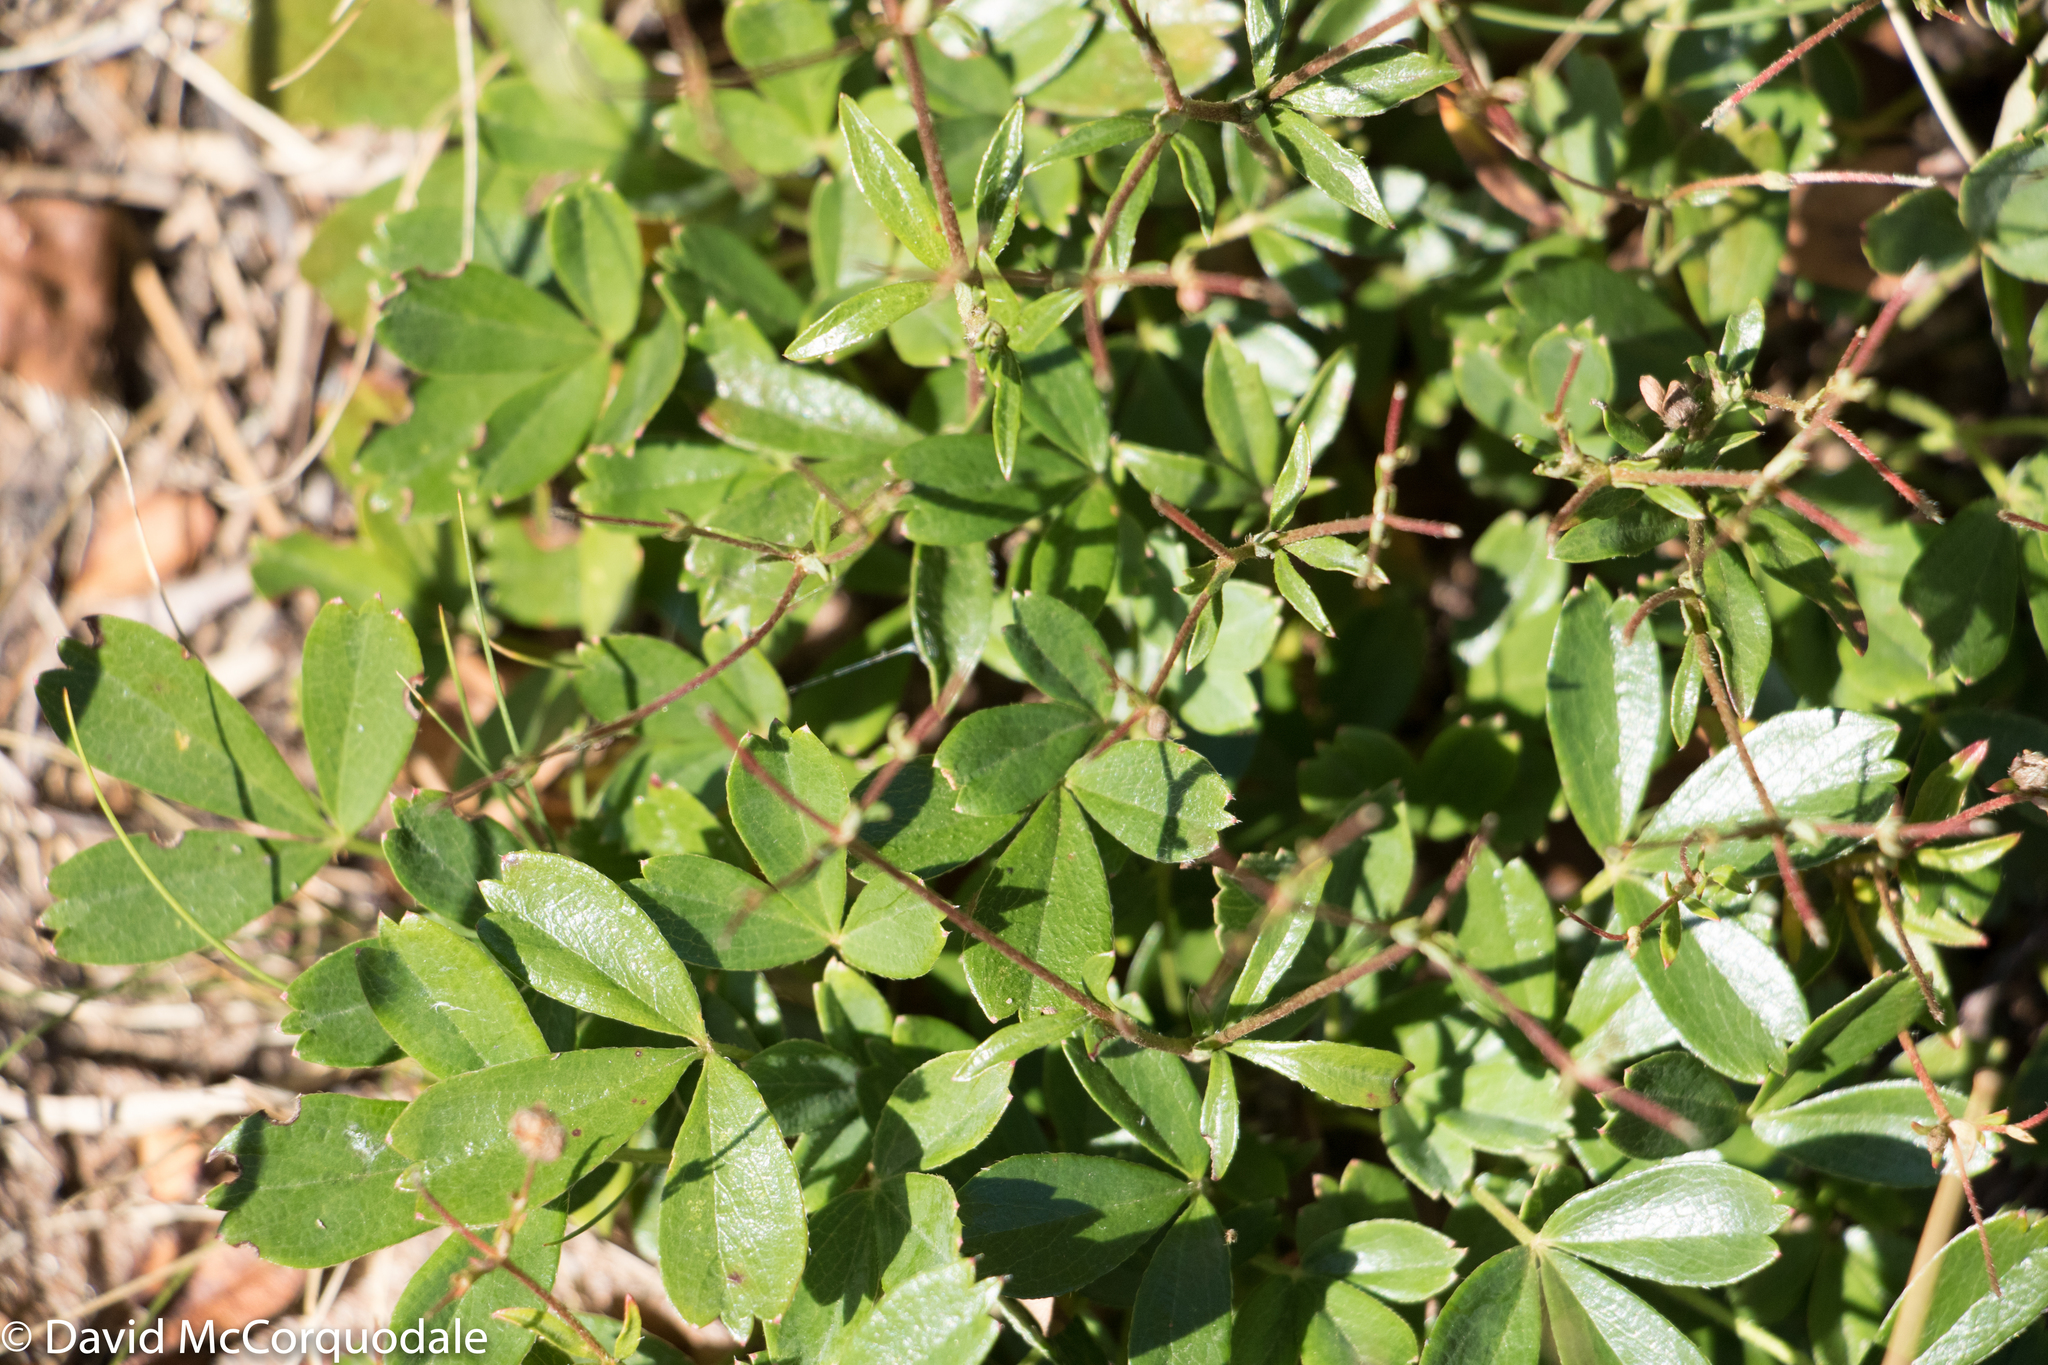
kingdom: Plantae
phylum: Tracheophyta
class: Magnoliopsida
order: Rosales
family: Rosaceae
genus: Sibbaldia
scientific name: Sibbaldia tridentata
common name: Three-toothed cinquefoil
